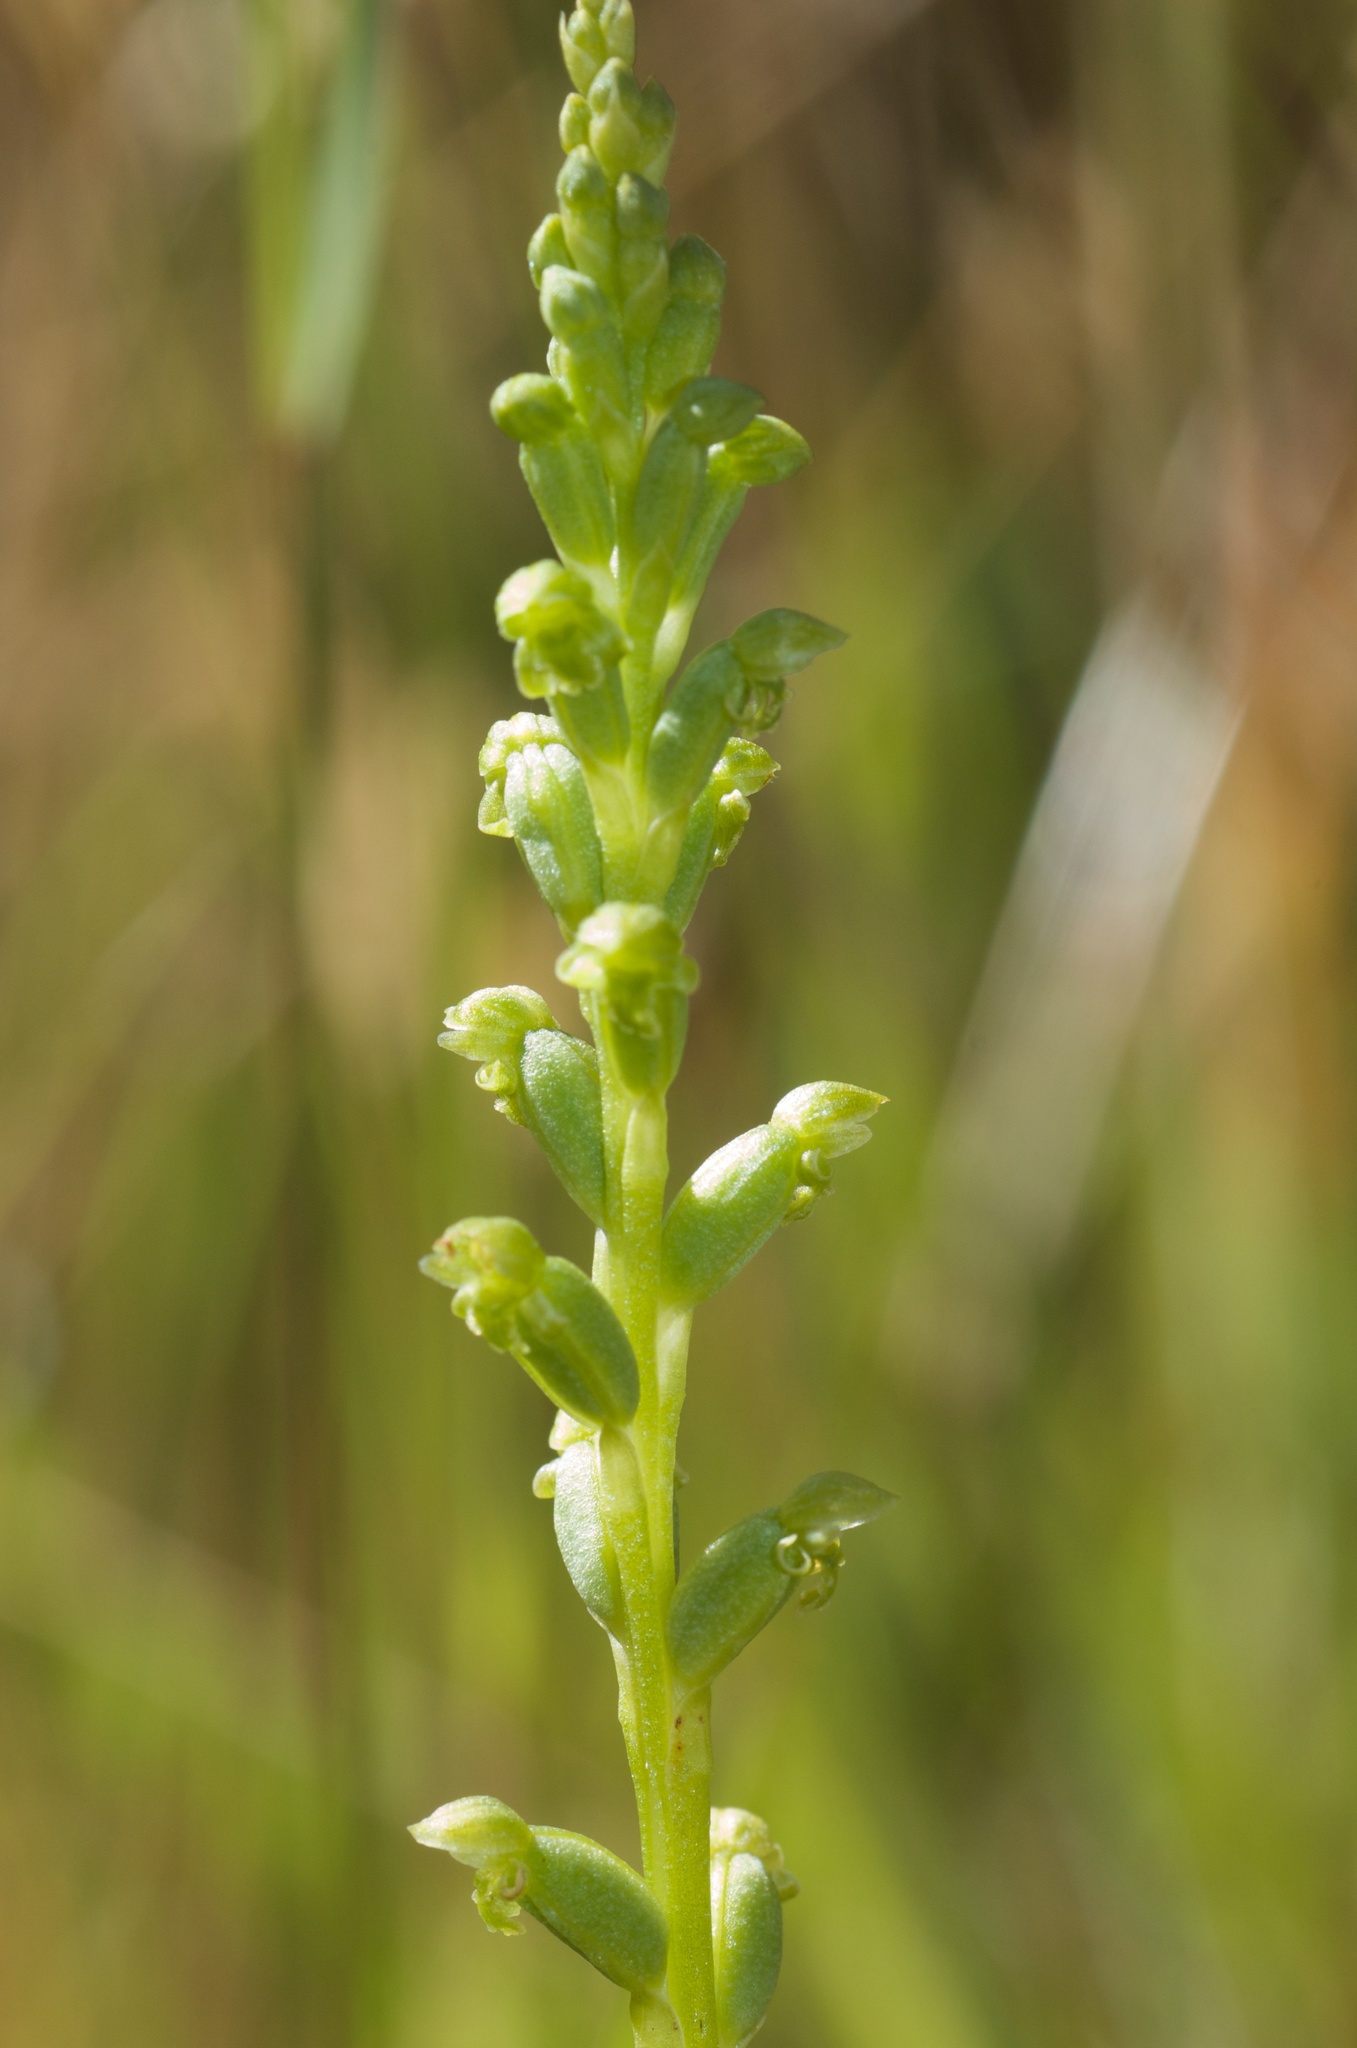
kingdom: Plantae
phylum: Tracheophyta
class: Liliopsida
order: Asparagales
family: Orchidaceae
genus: Microtis
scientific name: Microtis unifolia
